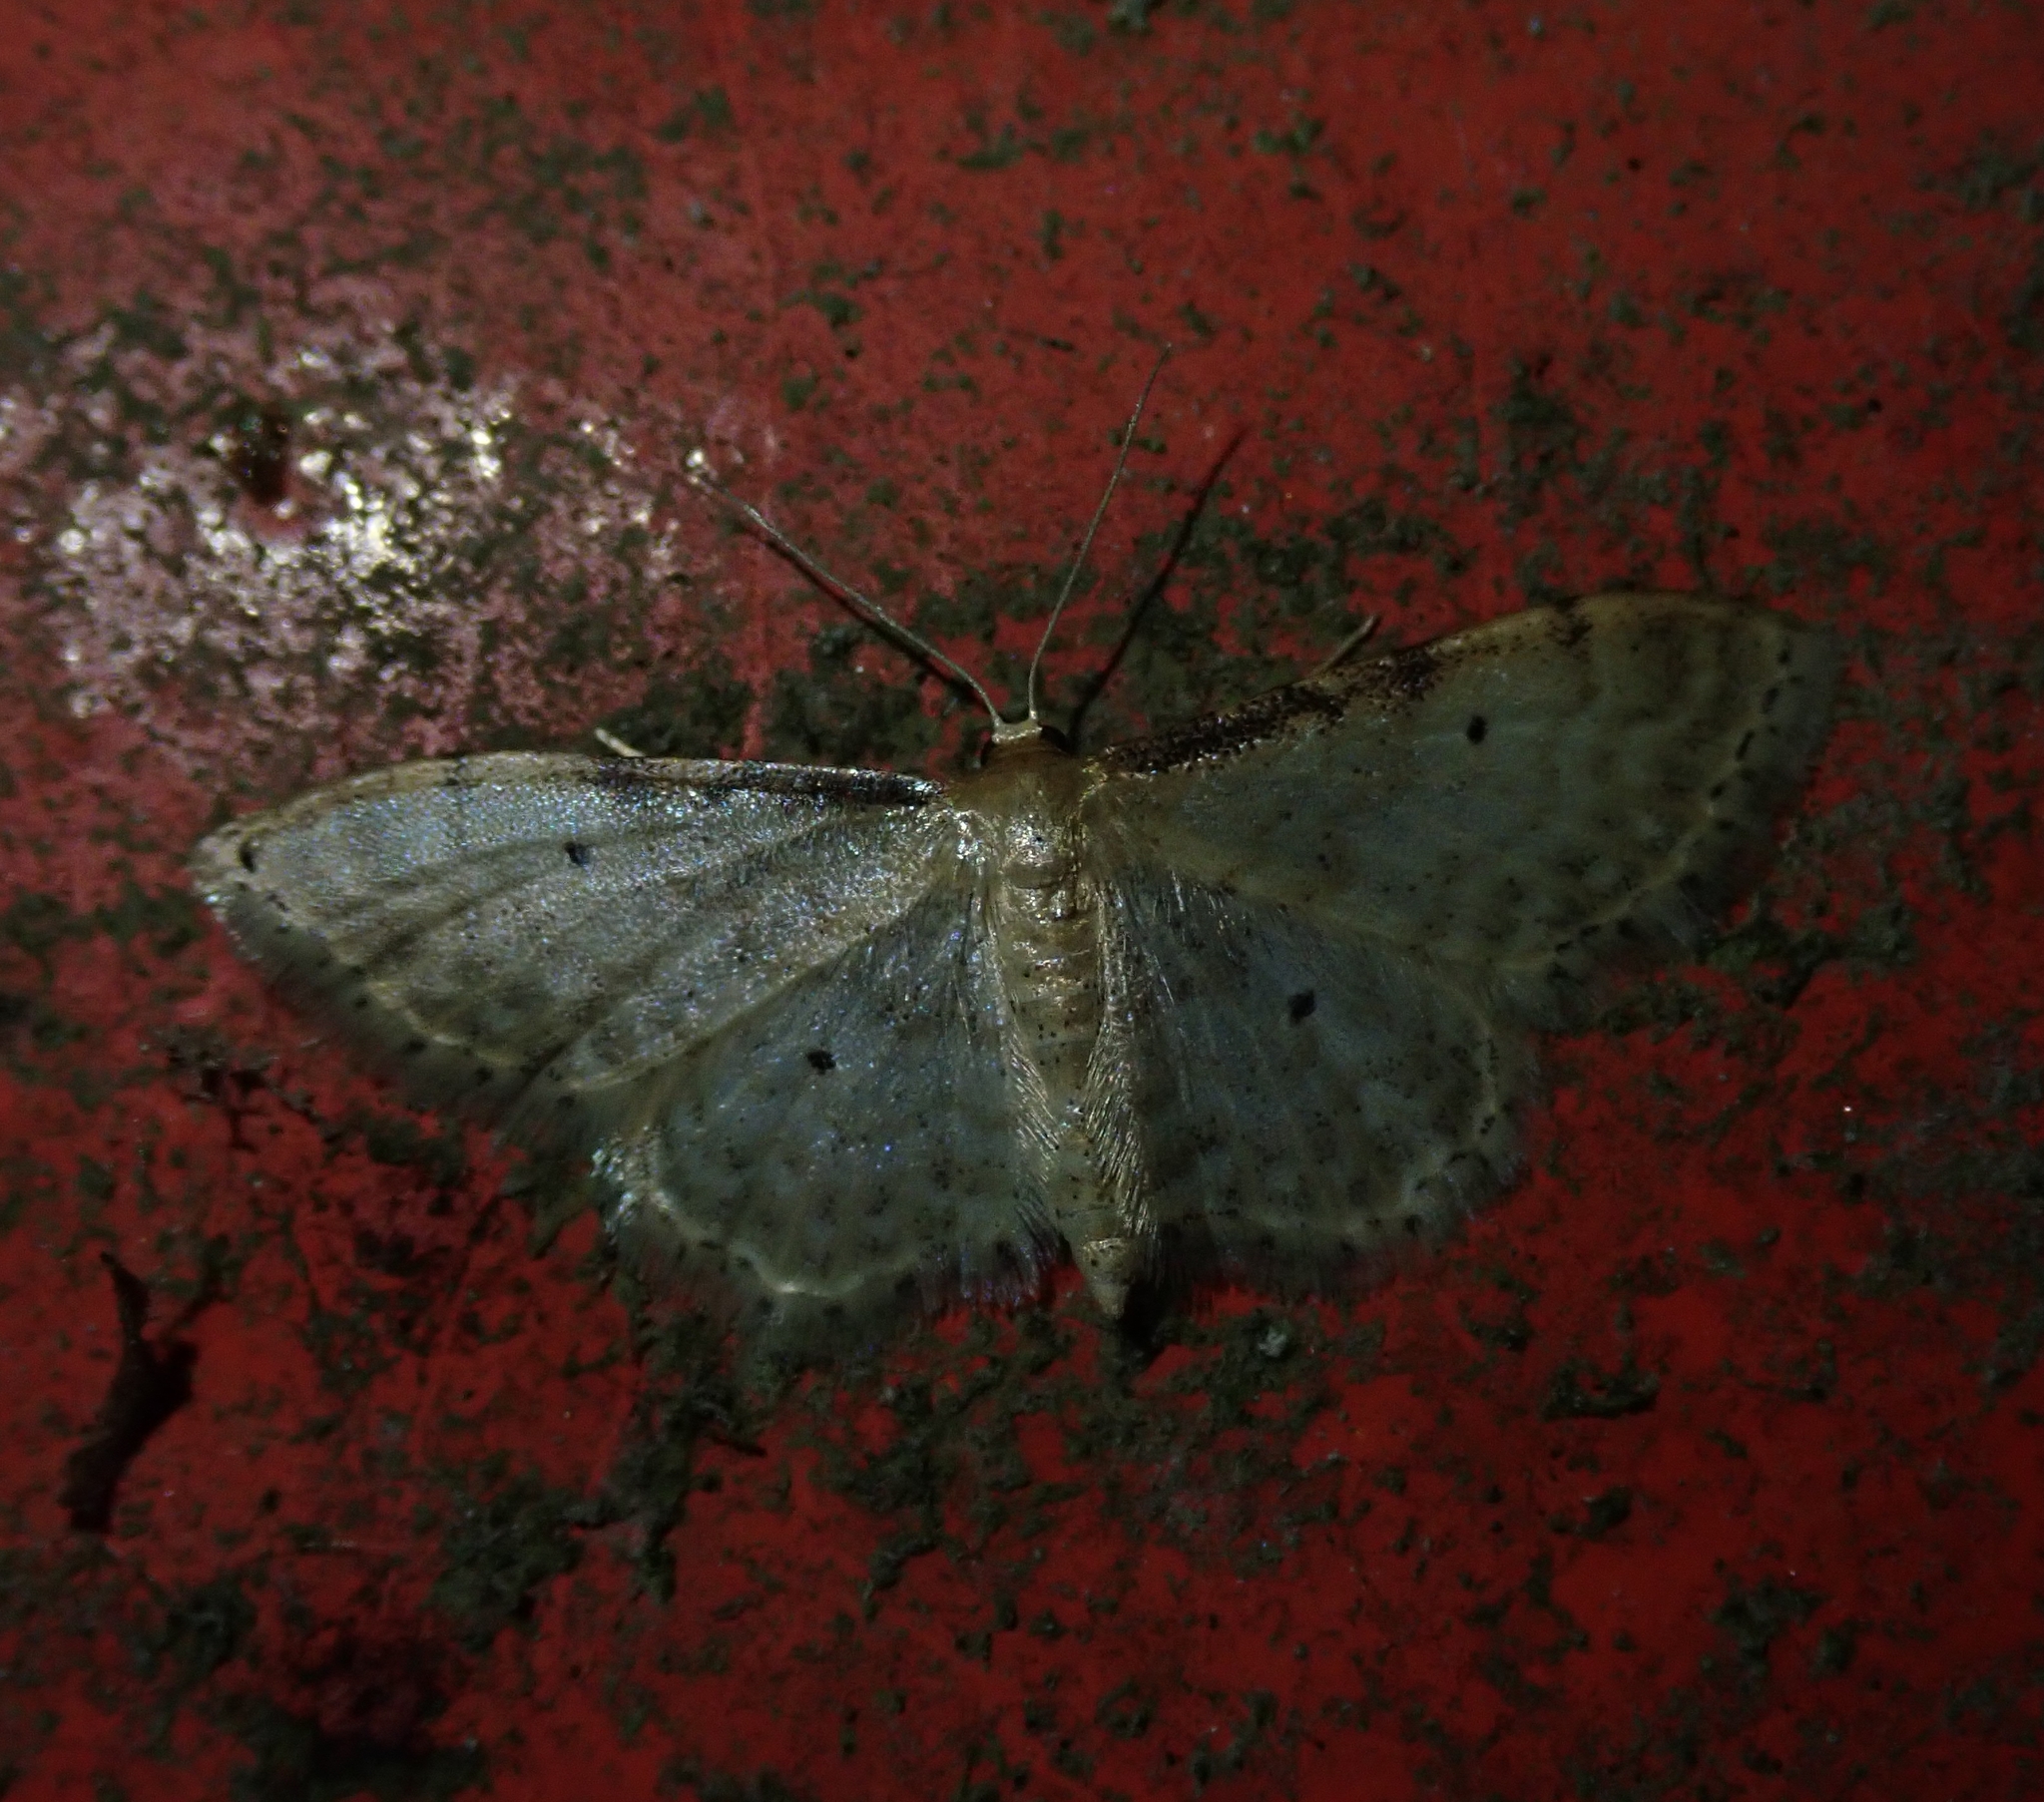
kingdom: Animalia
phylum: Arthropoda
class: Insecta
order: Lepidoptera
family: Geometridae
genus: Idaea
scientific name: Idaea fuscovenosa
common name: Dwarf cream wave
